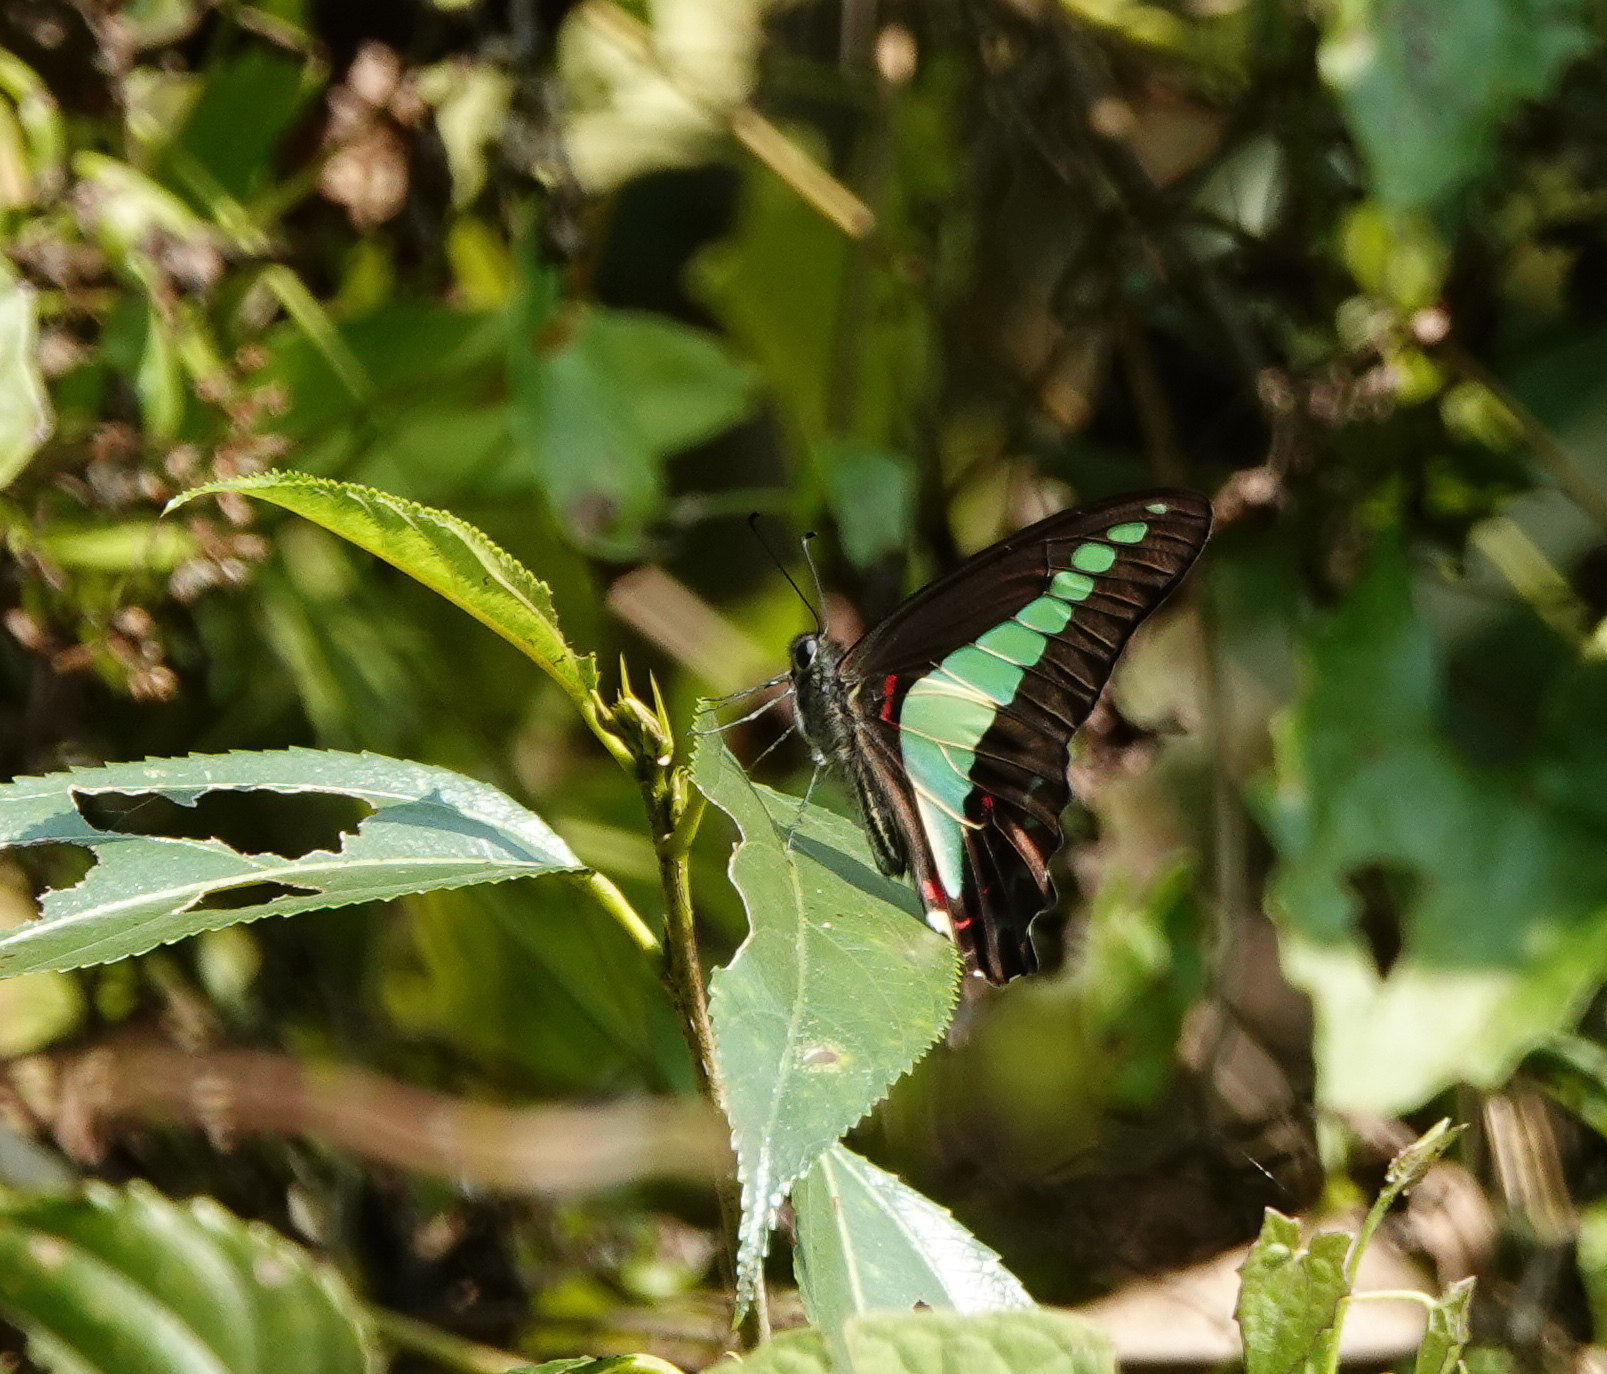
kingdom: Fungi
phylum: Ascomycota
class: Sordariomycetes
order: Microascales
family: Microascaceae
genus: Graphium
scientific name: Graphium sarpedon
